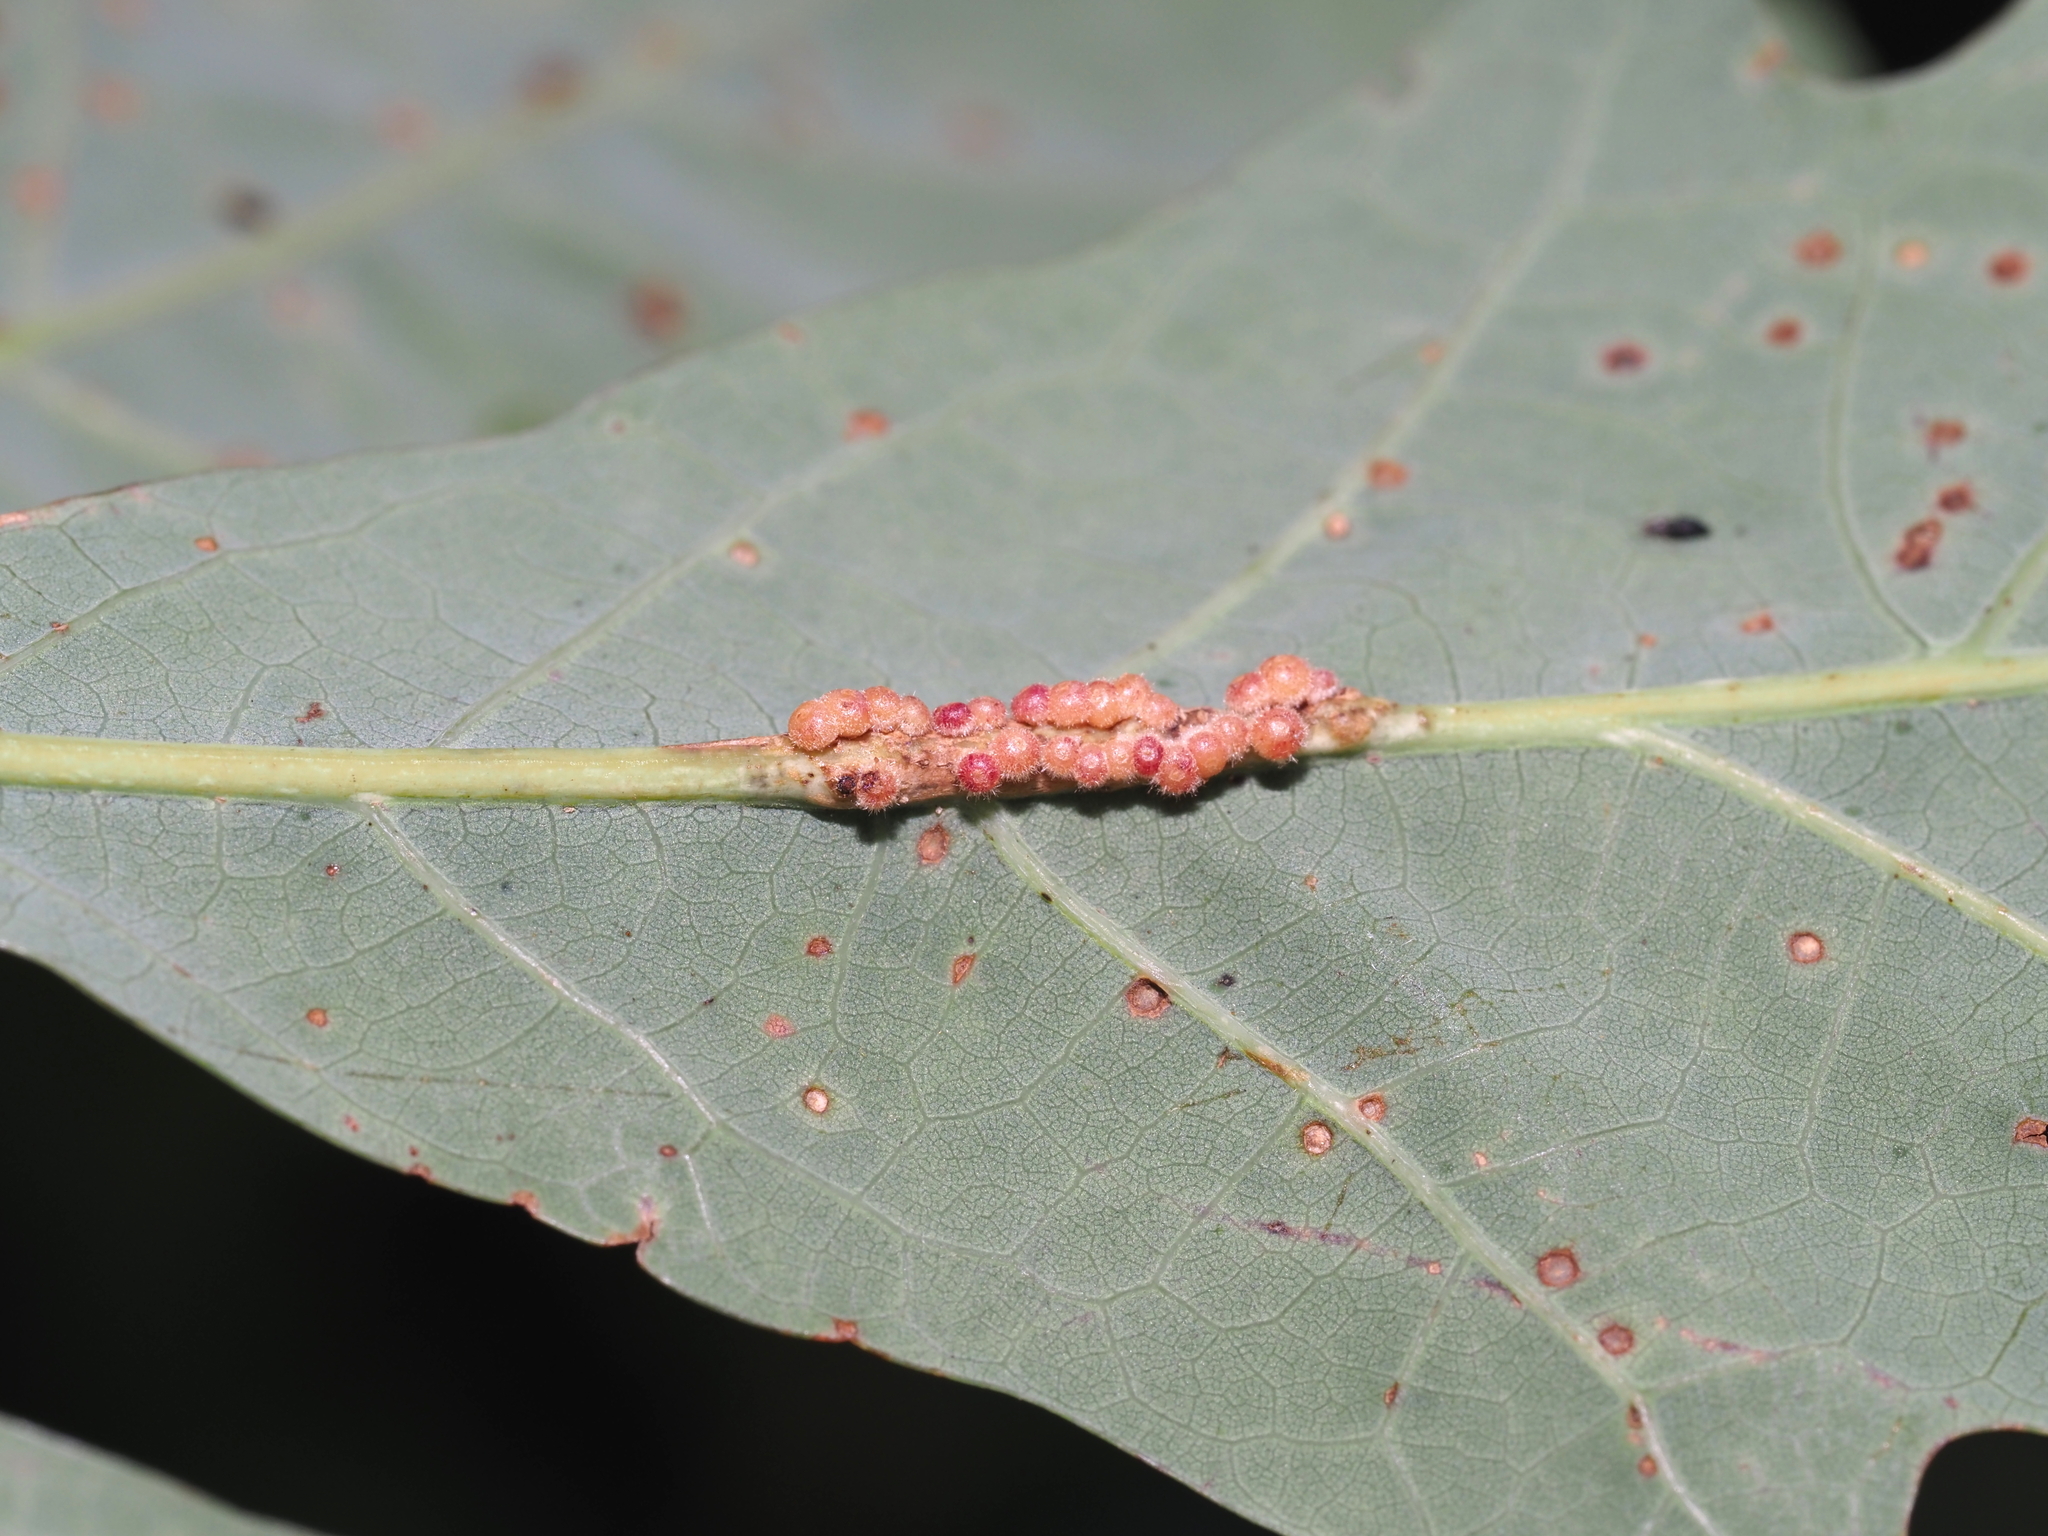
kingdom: Animalia
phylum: Arthropoda
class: Insecta
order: Hymenoptera
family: Cynipidae
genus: Andricus
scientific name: Andricus
